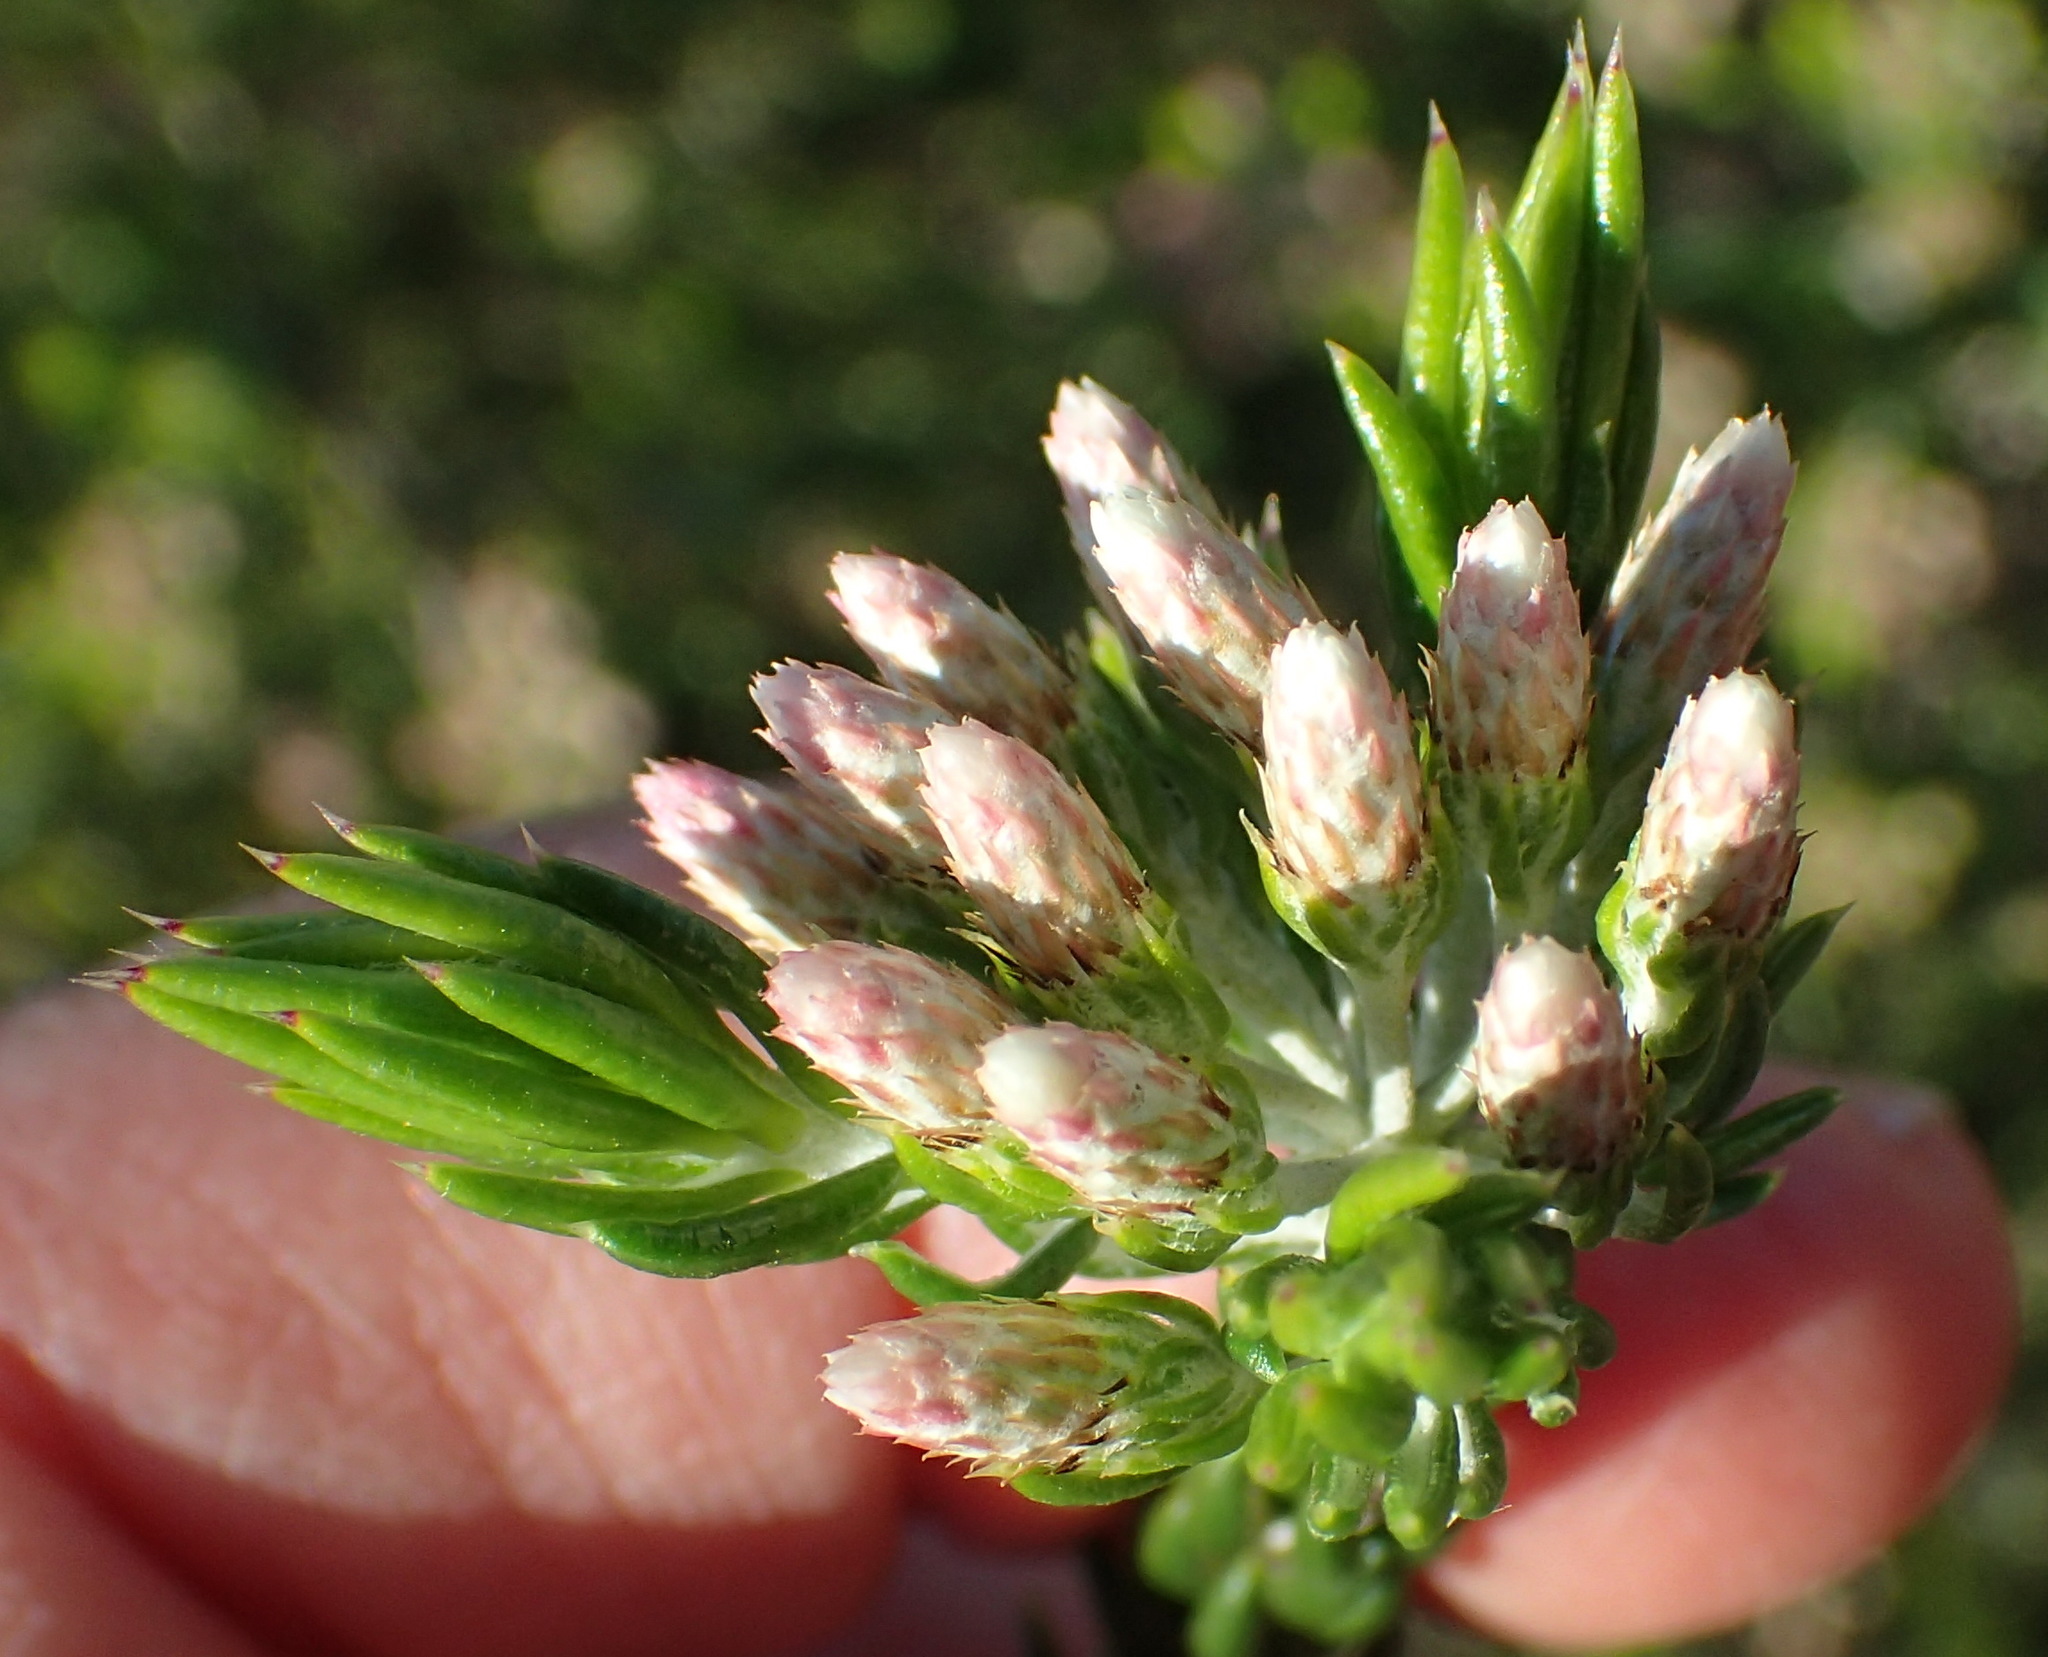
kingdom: Plantae
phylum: Tracheophyta
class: Magnoliopsida
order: Asterales
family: Asteraceae
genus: Metalasia
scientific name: Metalasia pallida
